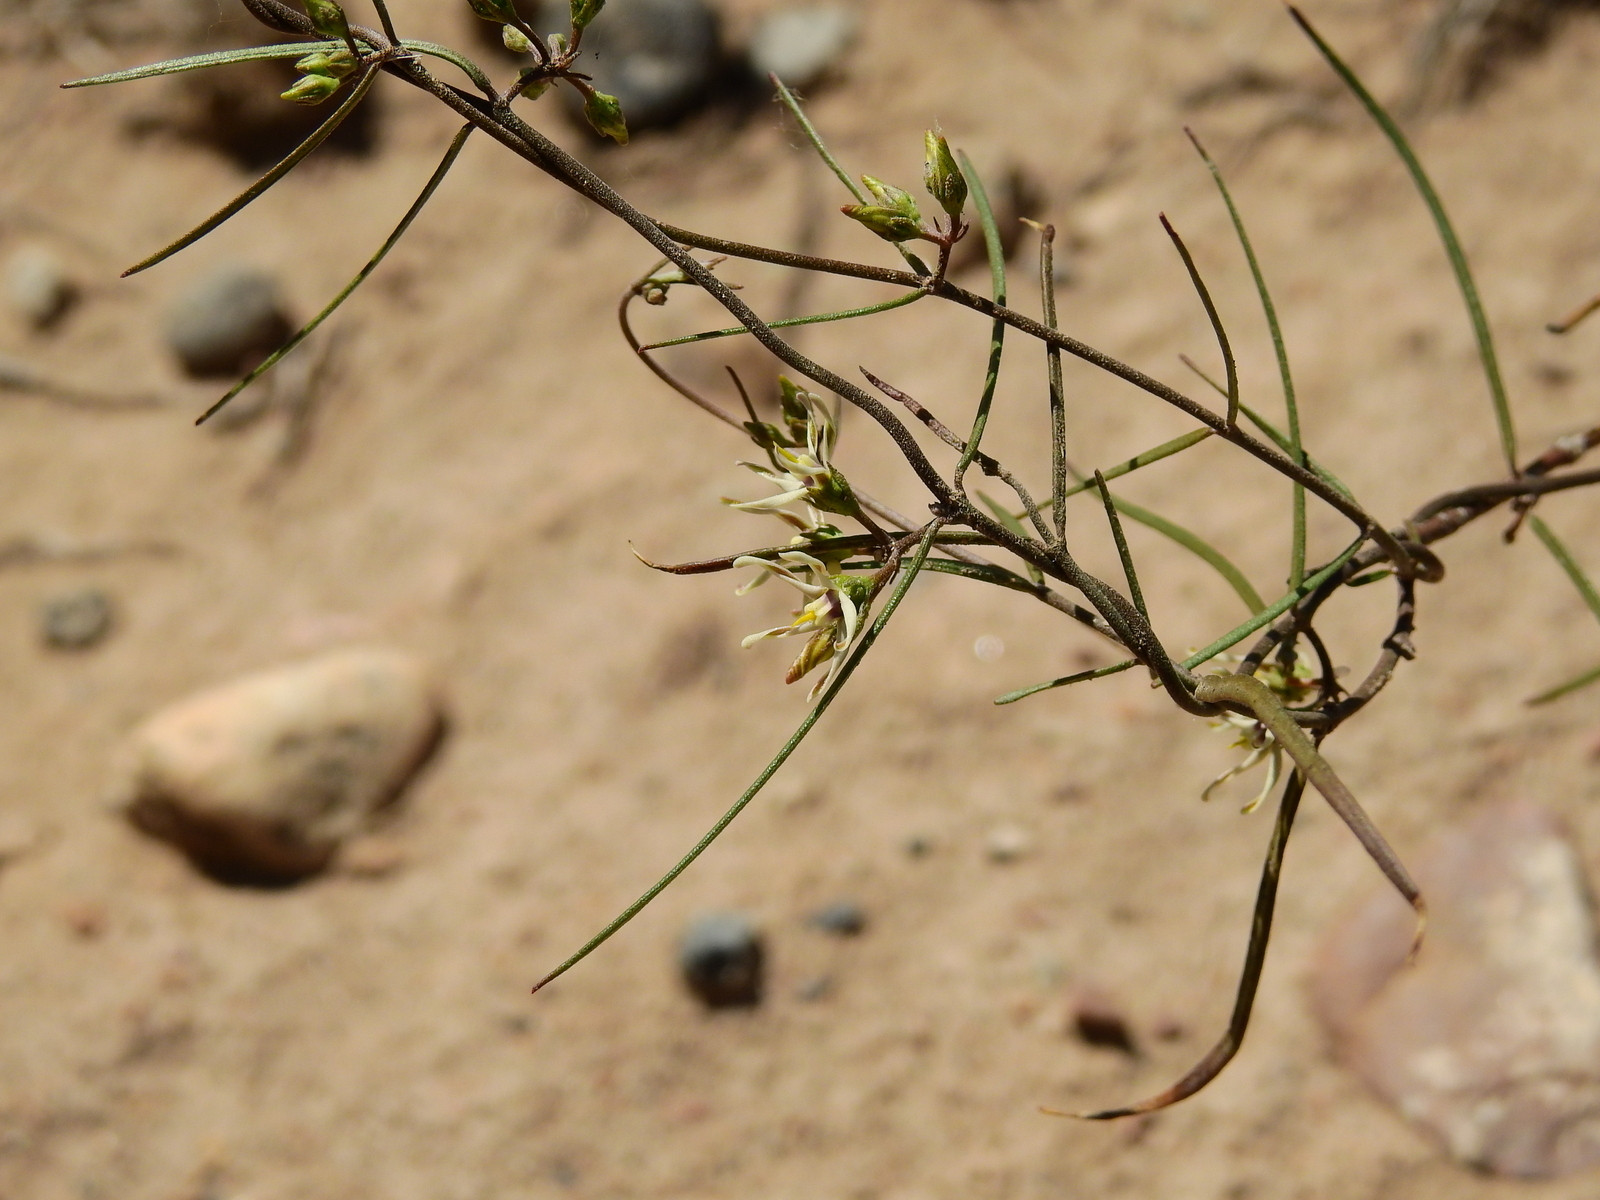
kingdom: Plantae
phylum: Tracheophyta
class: Magnoliopsida
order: Gentianales
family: Apocynaceae
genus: Tweedia
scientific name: Tweedia brunonis
